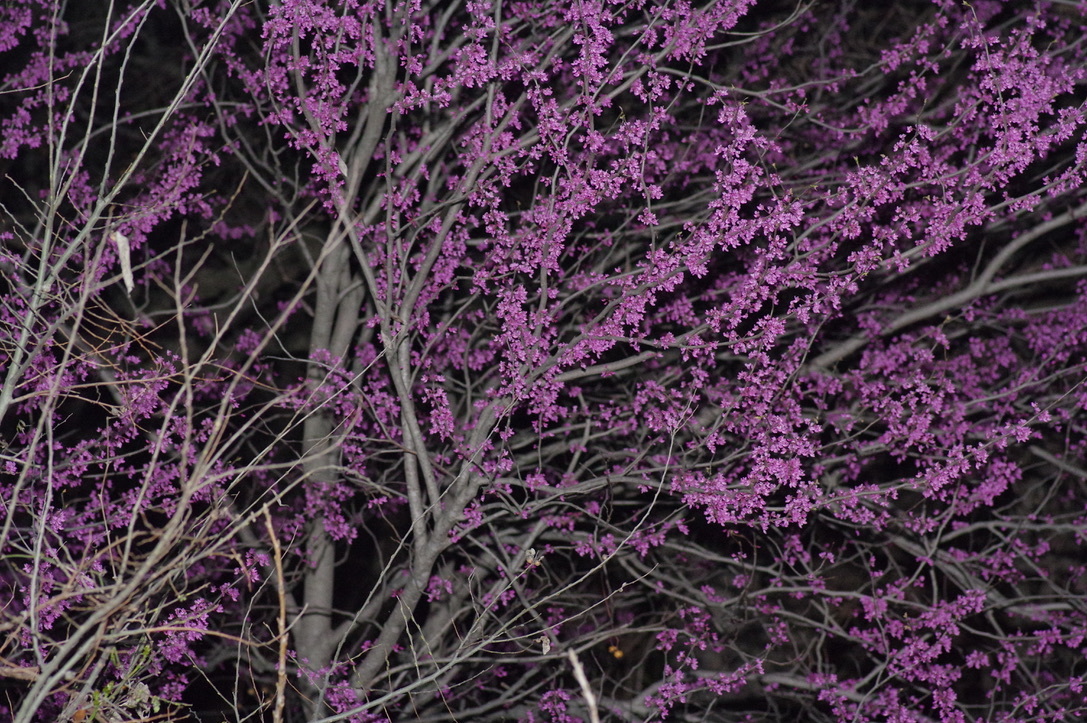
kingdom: Plantae
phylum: Tracheophyta
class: Magnoliopsida
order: Fabales
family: Fabaceae
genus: Cercis
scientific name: Cercis canadensis
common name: Eastern redbud
